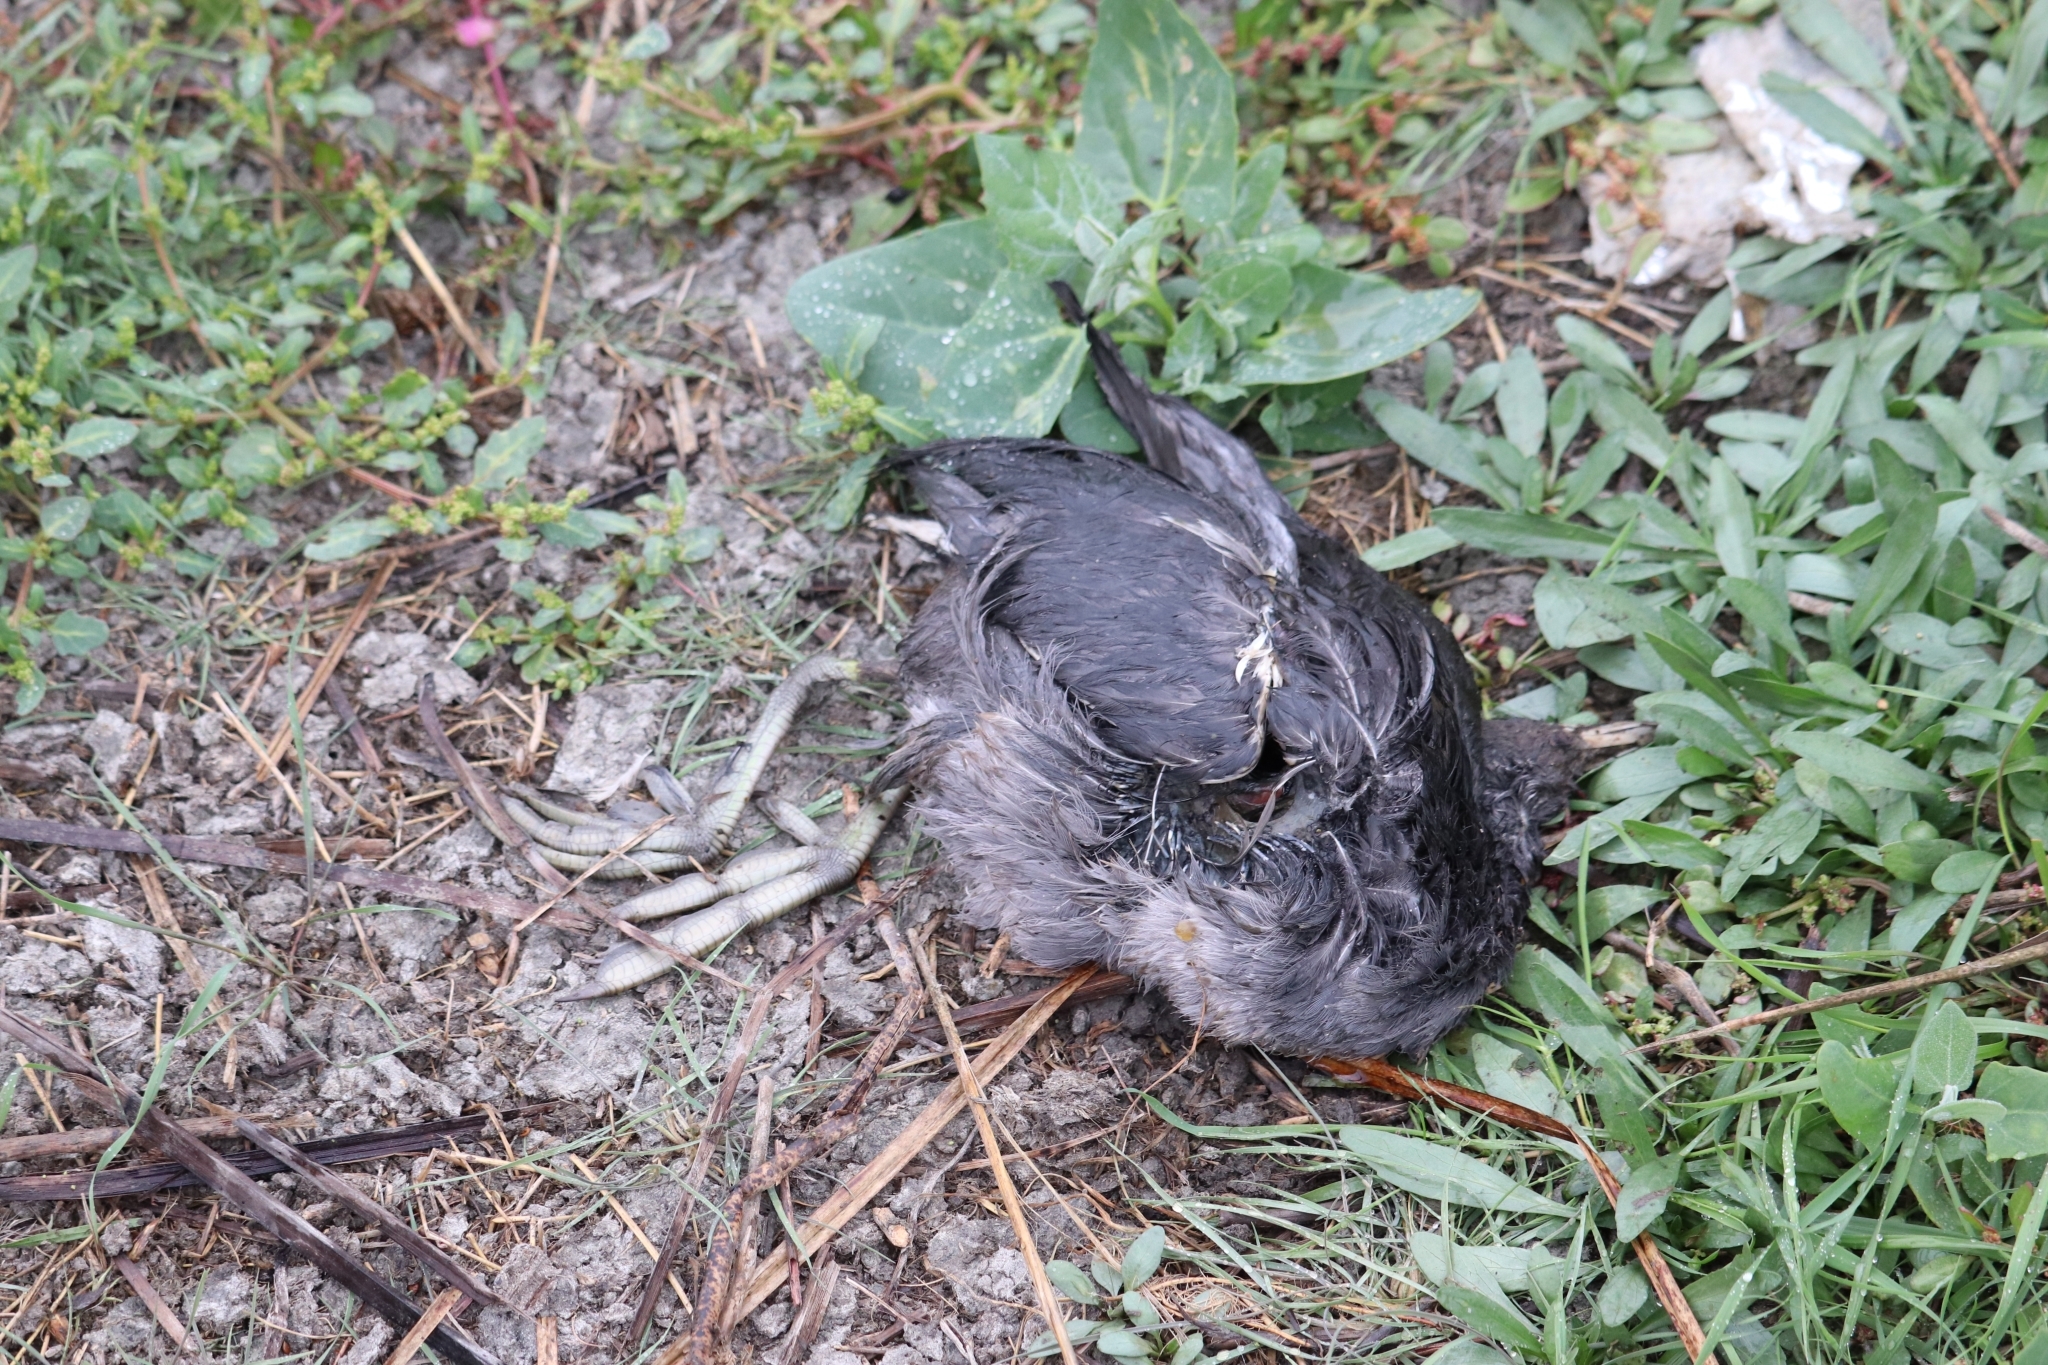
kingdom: Animalia
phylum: Chordata
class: Aves
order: Gruiformes
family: Rallidae
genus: Fulica
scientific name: Fulica americana
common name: American coot
